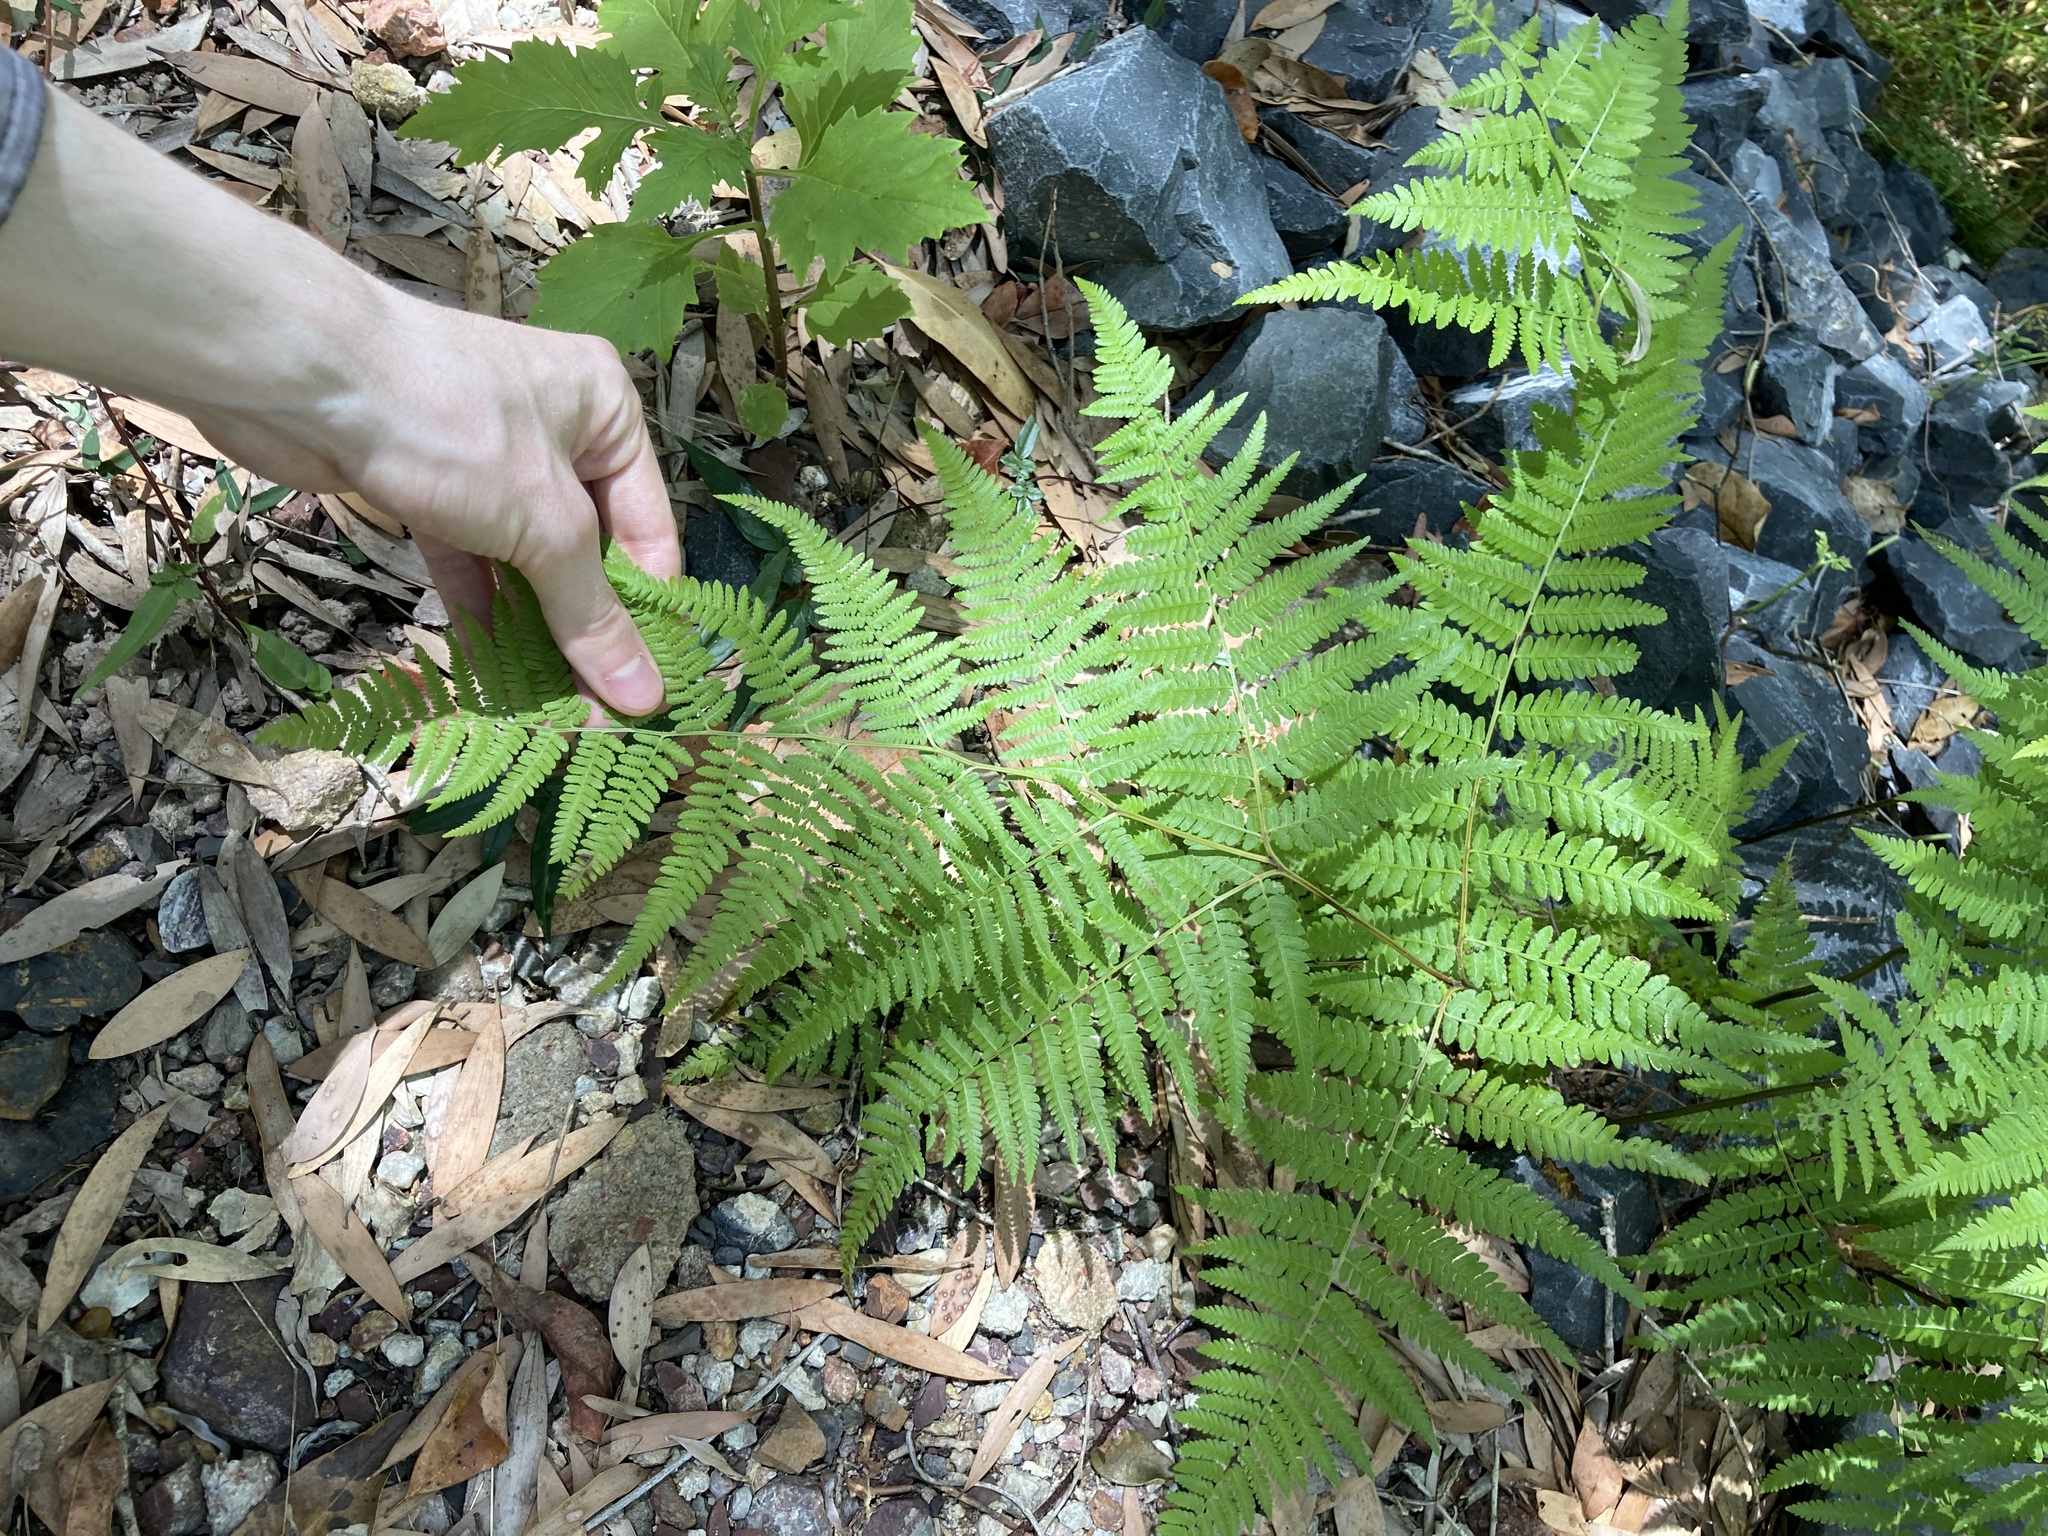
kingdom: Plantae
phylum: Tracheophyta
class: Polypodiopsida
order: Cyatheales
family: Dicksoniaceae
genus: Calochlaena
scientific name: Calochlaena dubia
